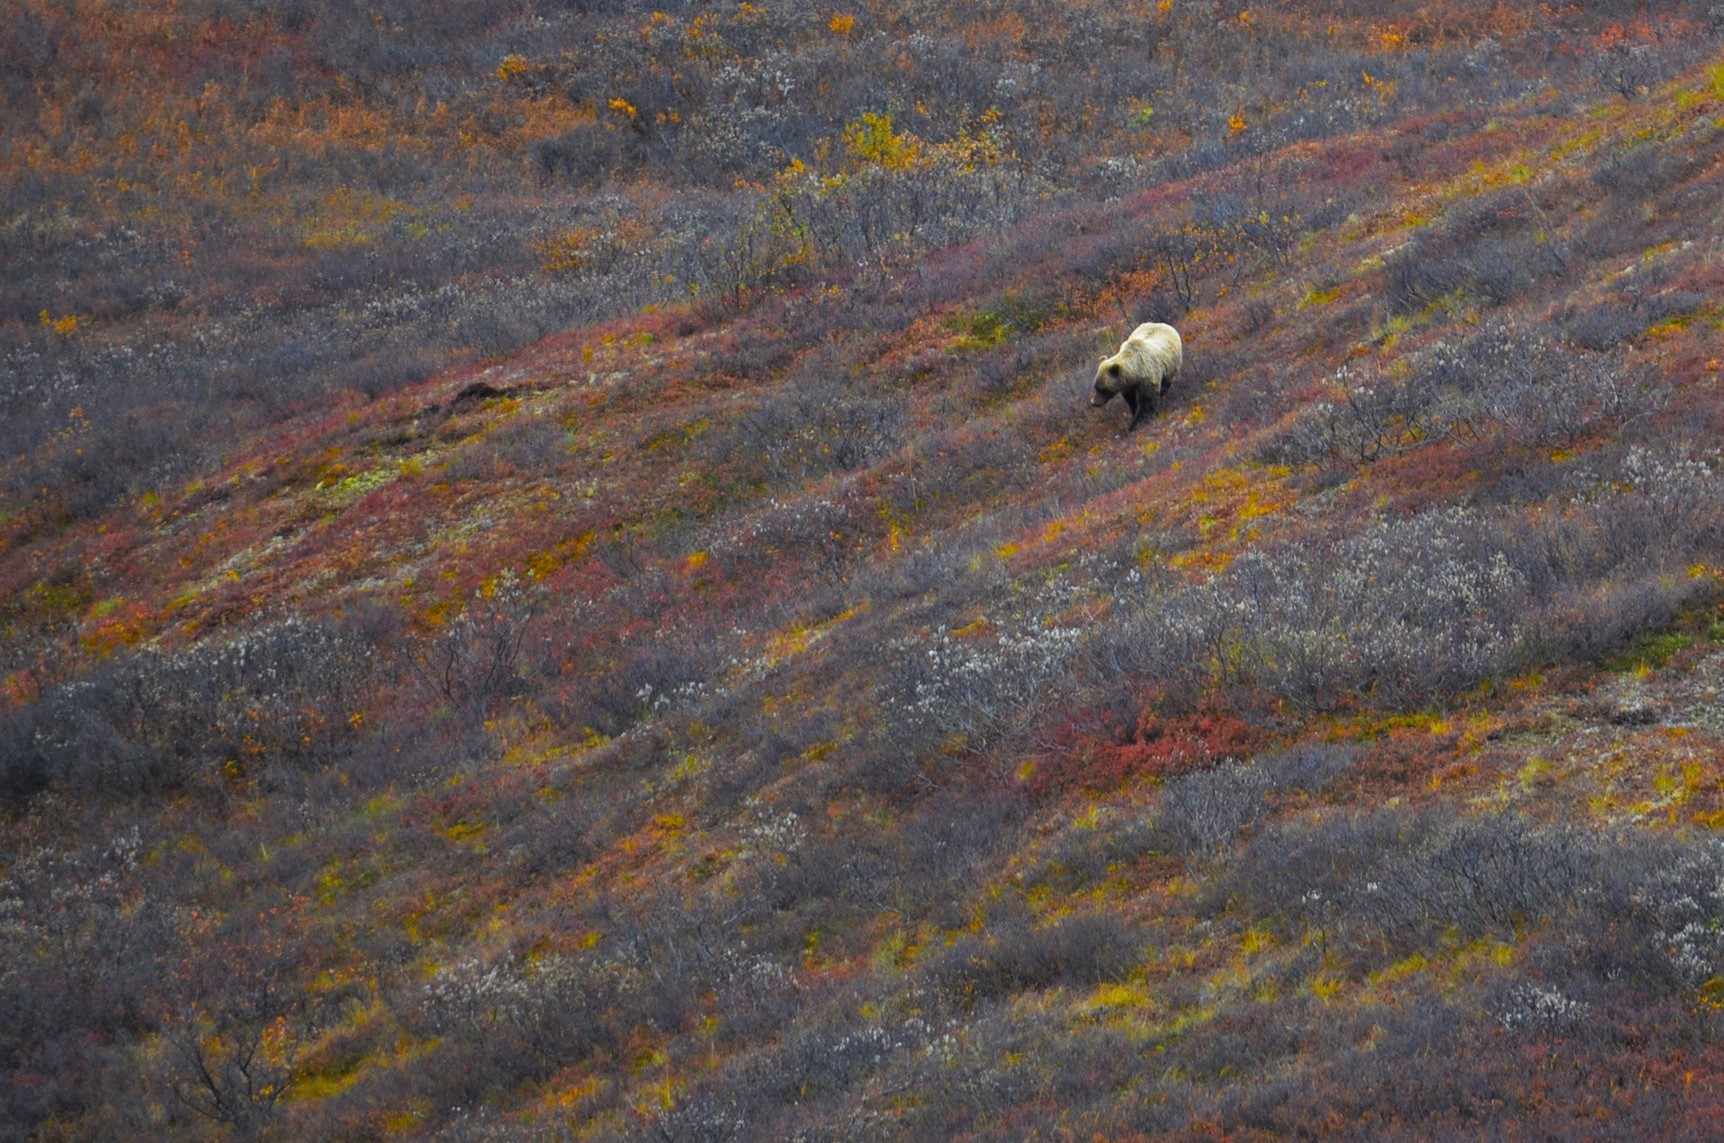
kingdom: Animalia
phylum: Chordata
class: Mammalia
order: Carnivora
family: Ursidae
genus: Ursus
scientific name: Ursus arctos
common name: Brown bear
